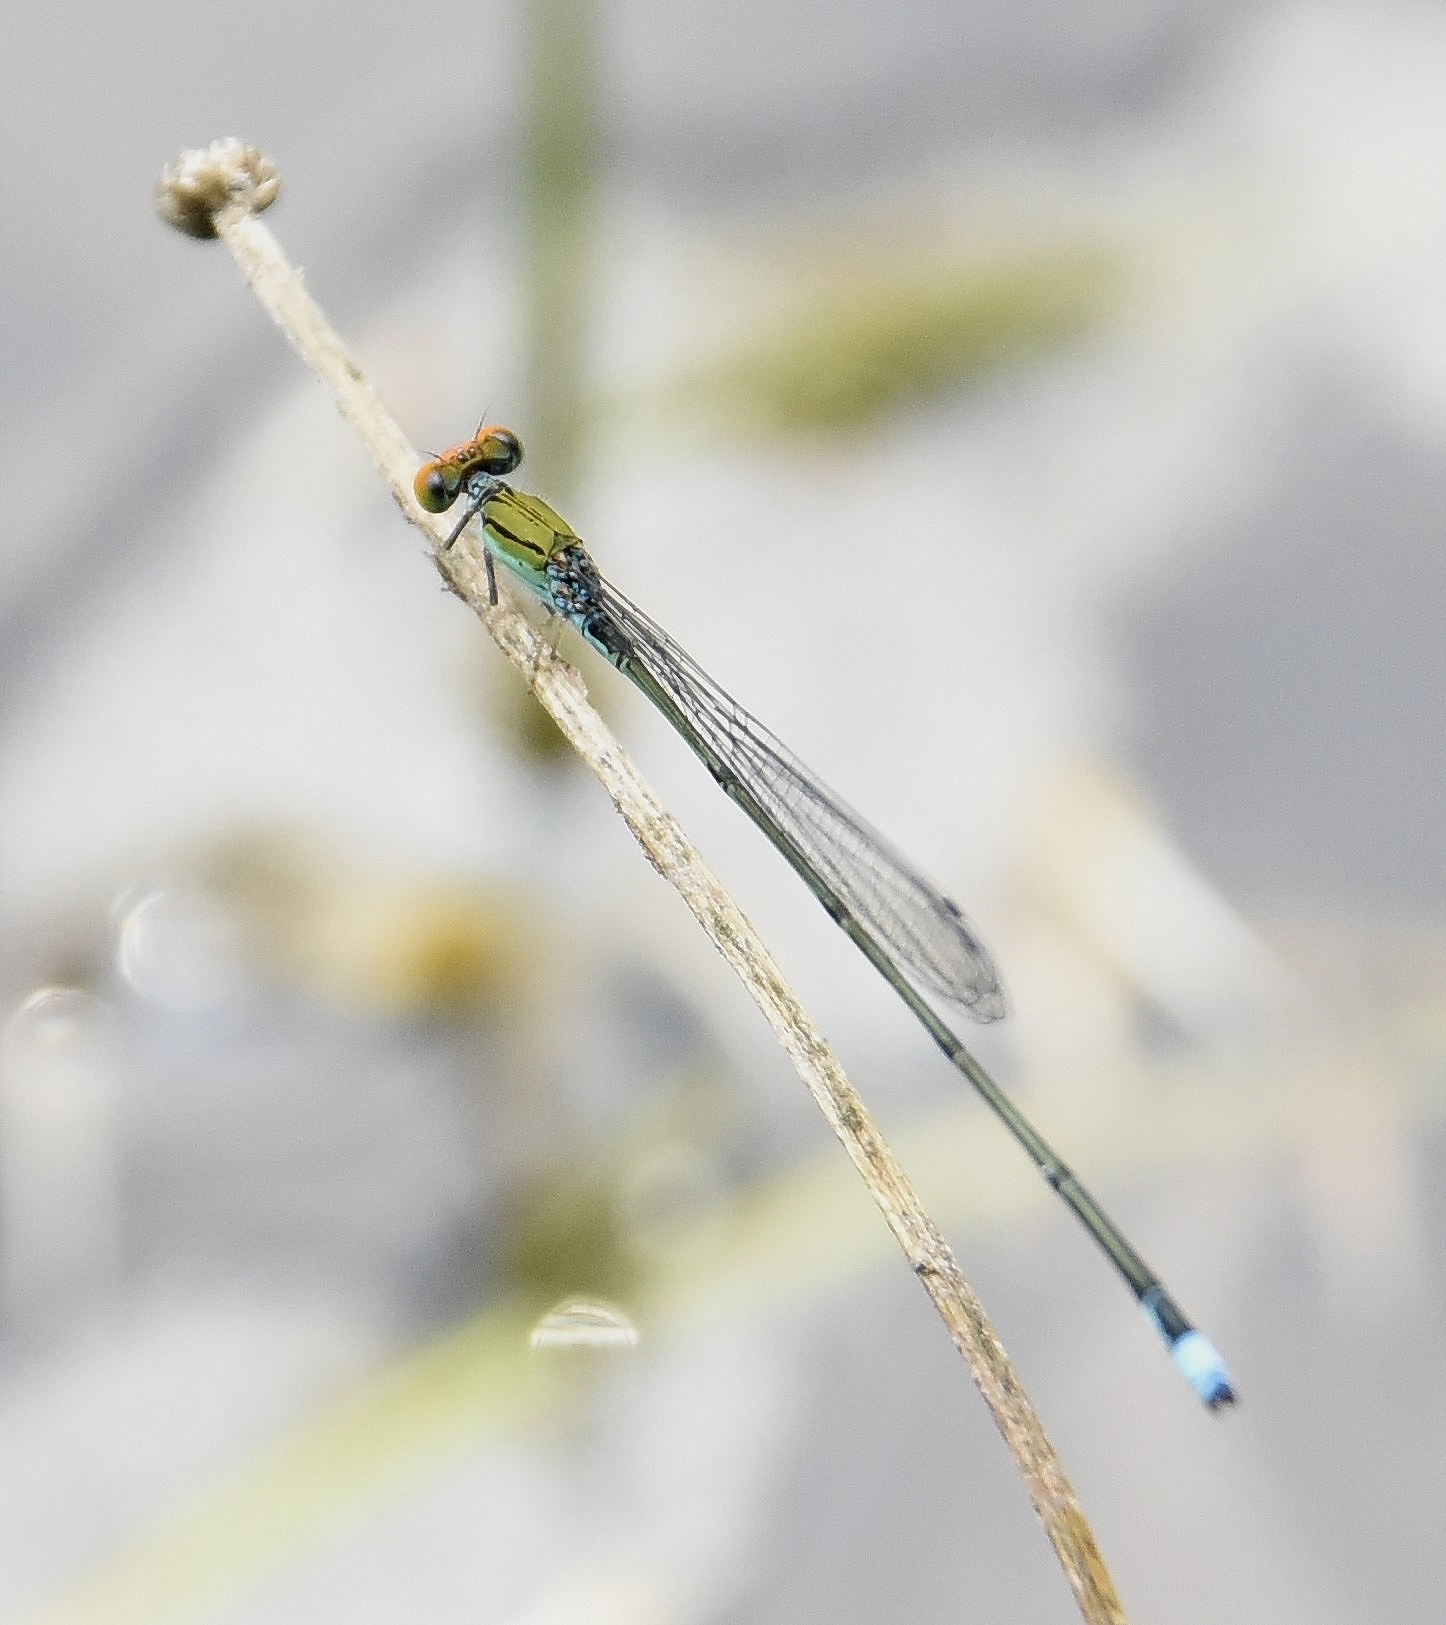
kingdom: Animalia
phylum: Arthropoda
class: Insecta
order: Odonata
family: Coenagrionidae
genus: Pseudagrion
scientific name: Pseudagrion rubriceps
